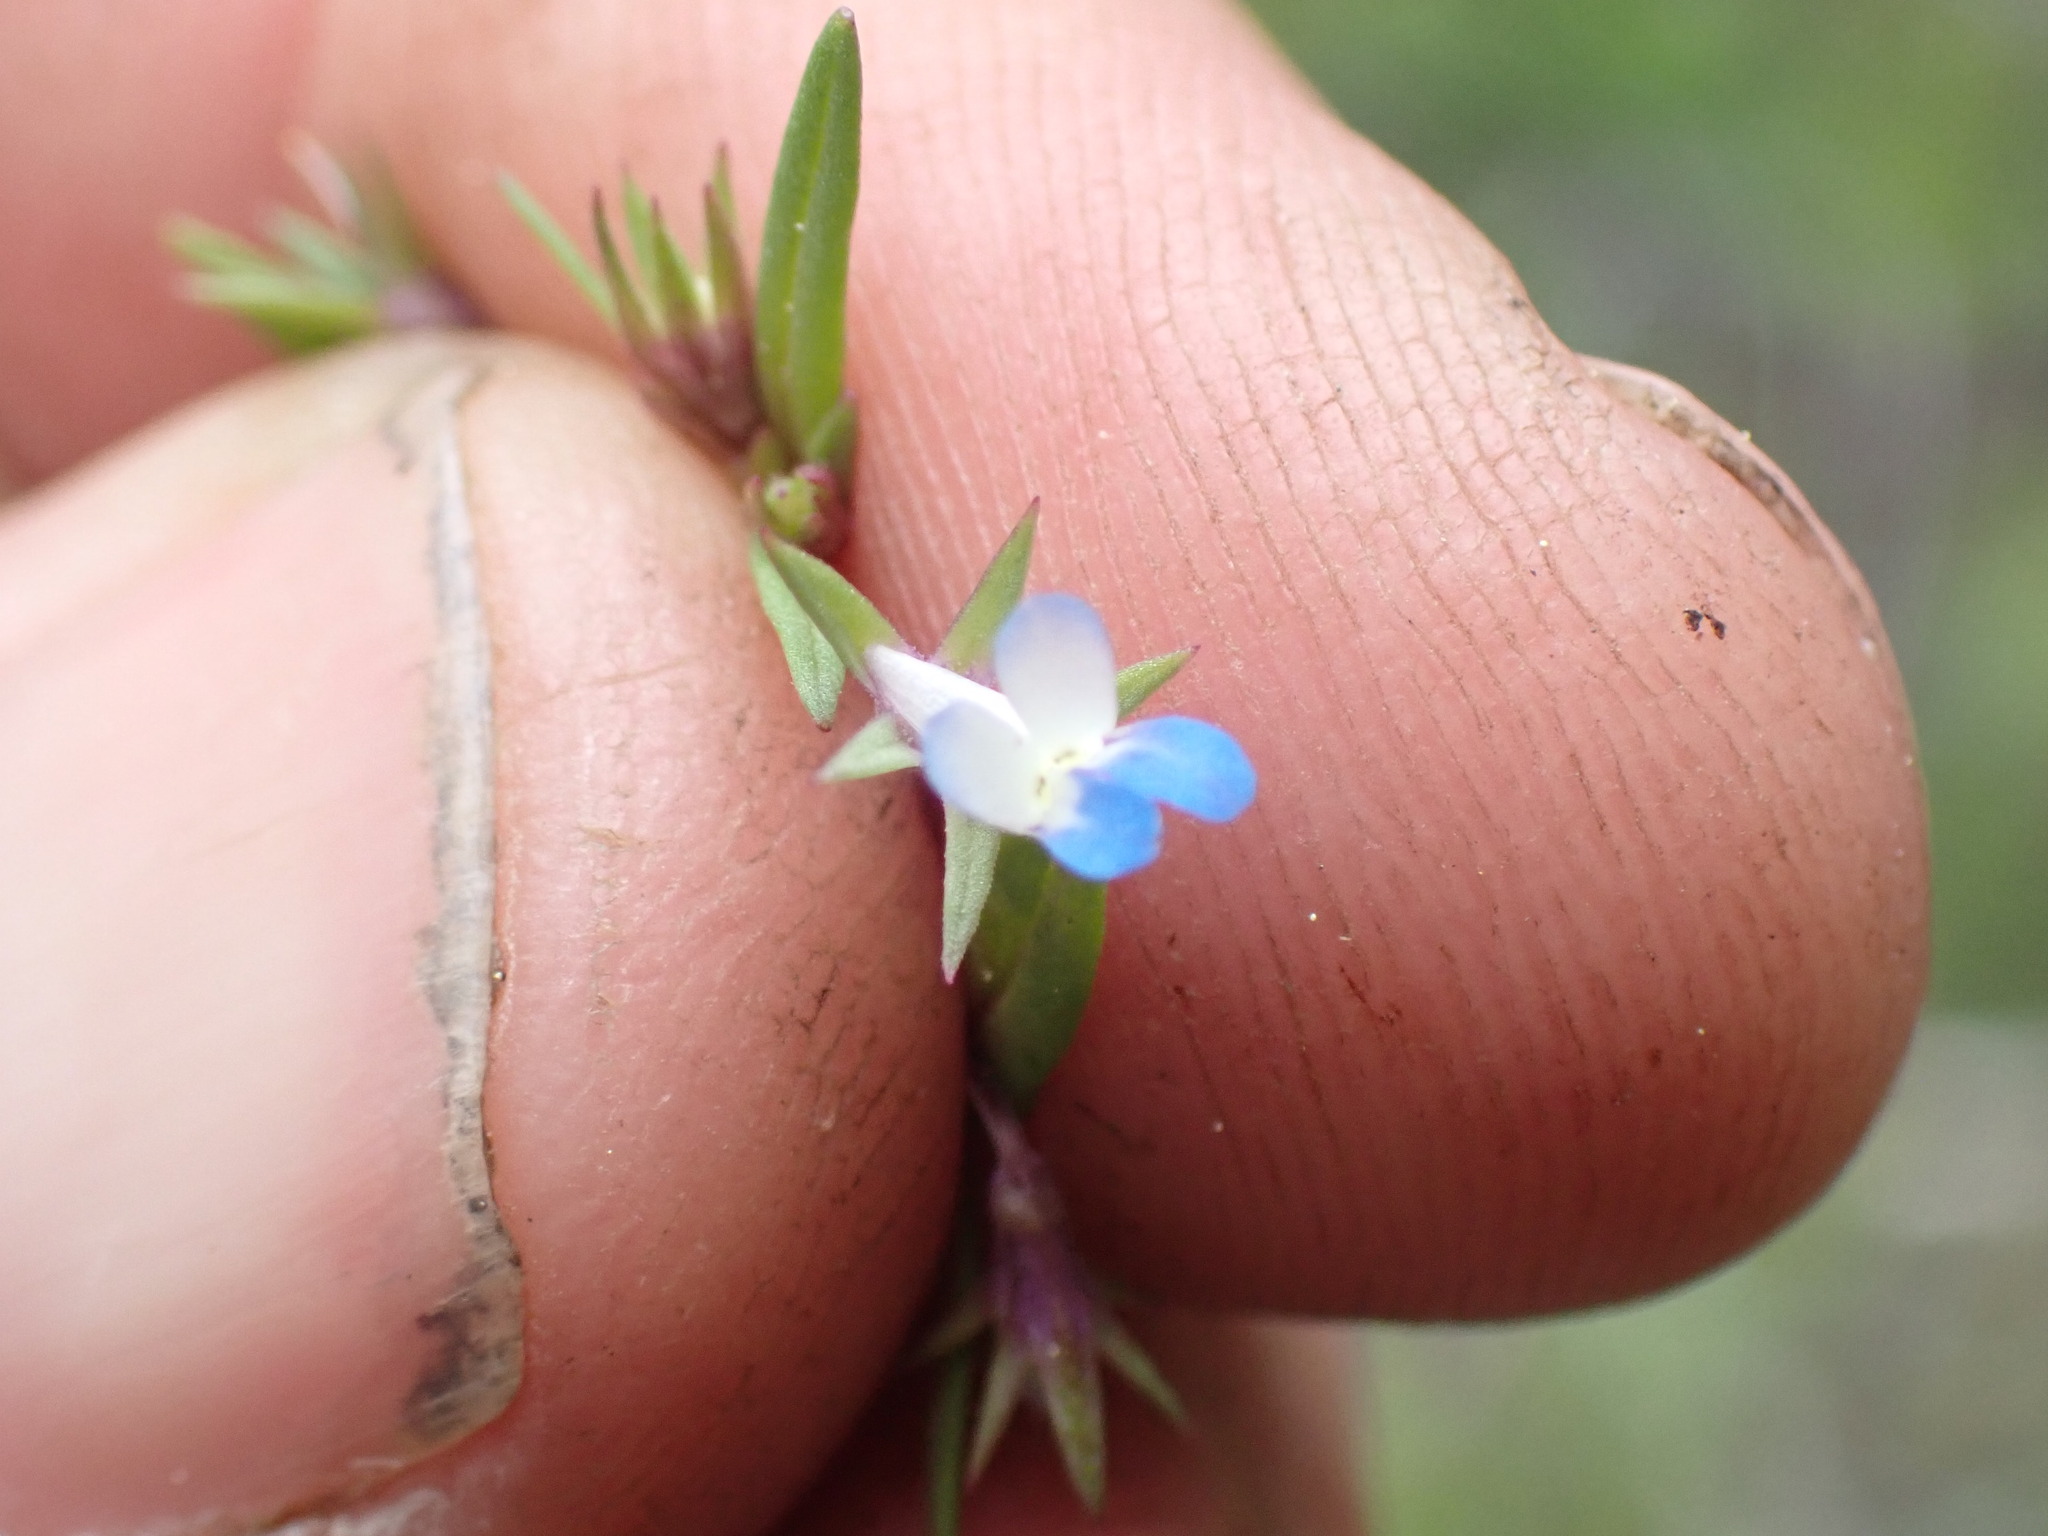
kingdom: Plantae
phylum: Tracheophyta
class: Magnoliopsida
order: Lamiales
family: Plantaginaceae
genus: Collinsia
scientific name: Collinsia parviflora
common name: Blue-lips
